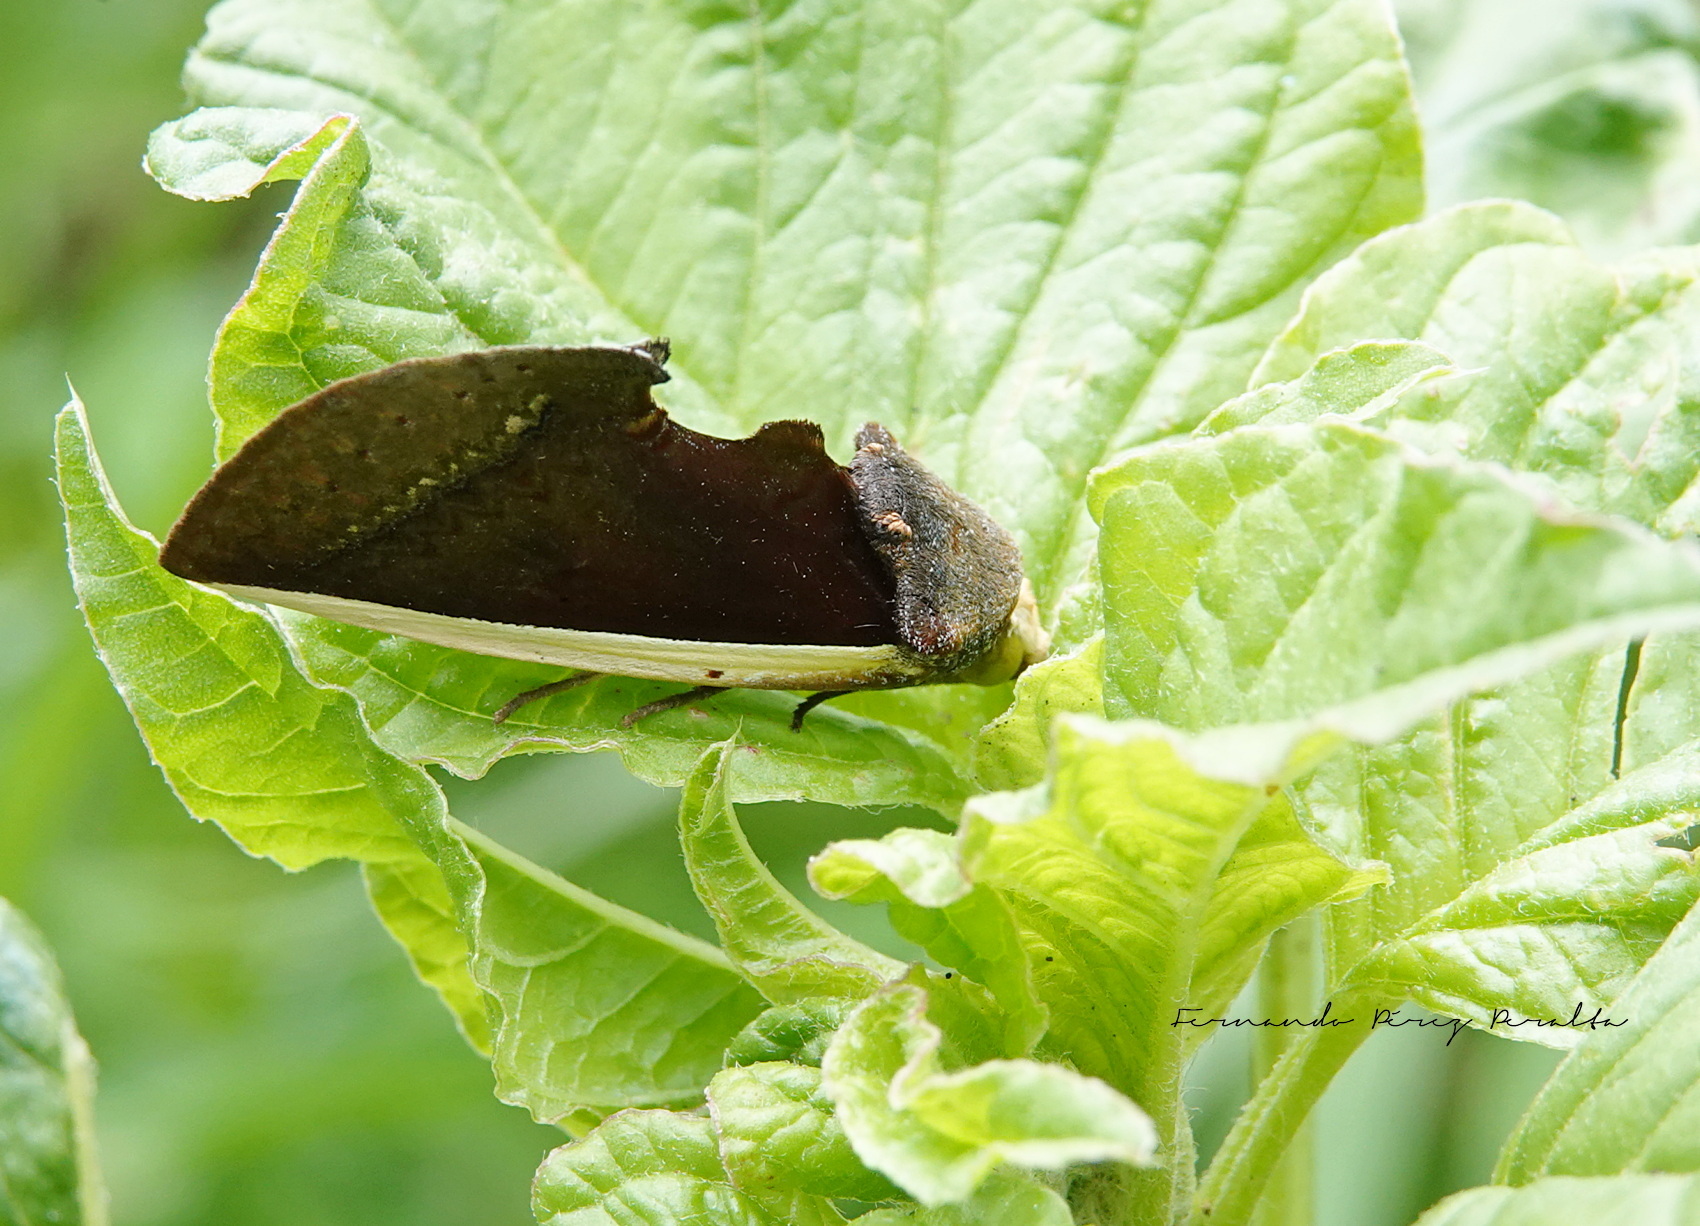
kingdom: Animalia
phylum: Arthropoda
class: Insecta
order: Lepidoptera
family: Erebidae
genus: Gonodonta
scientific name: Gonodonta pyrgo
